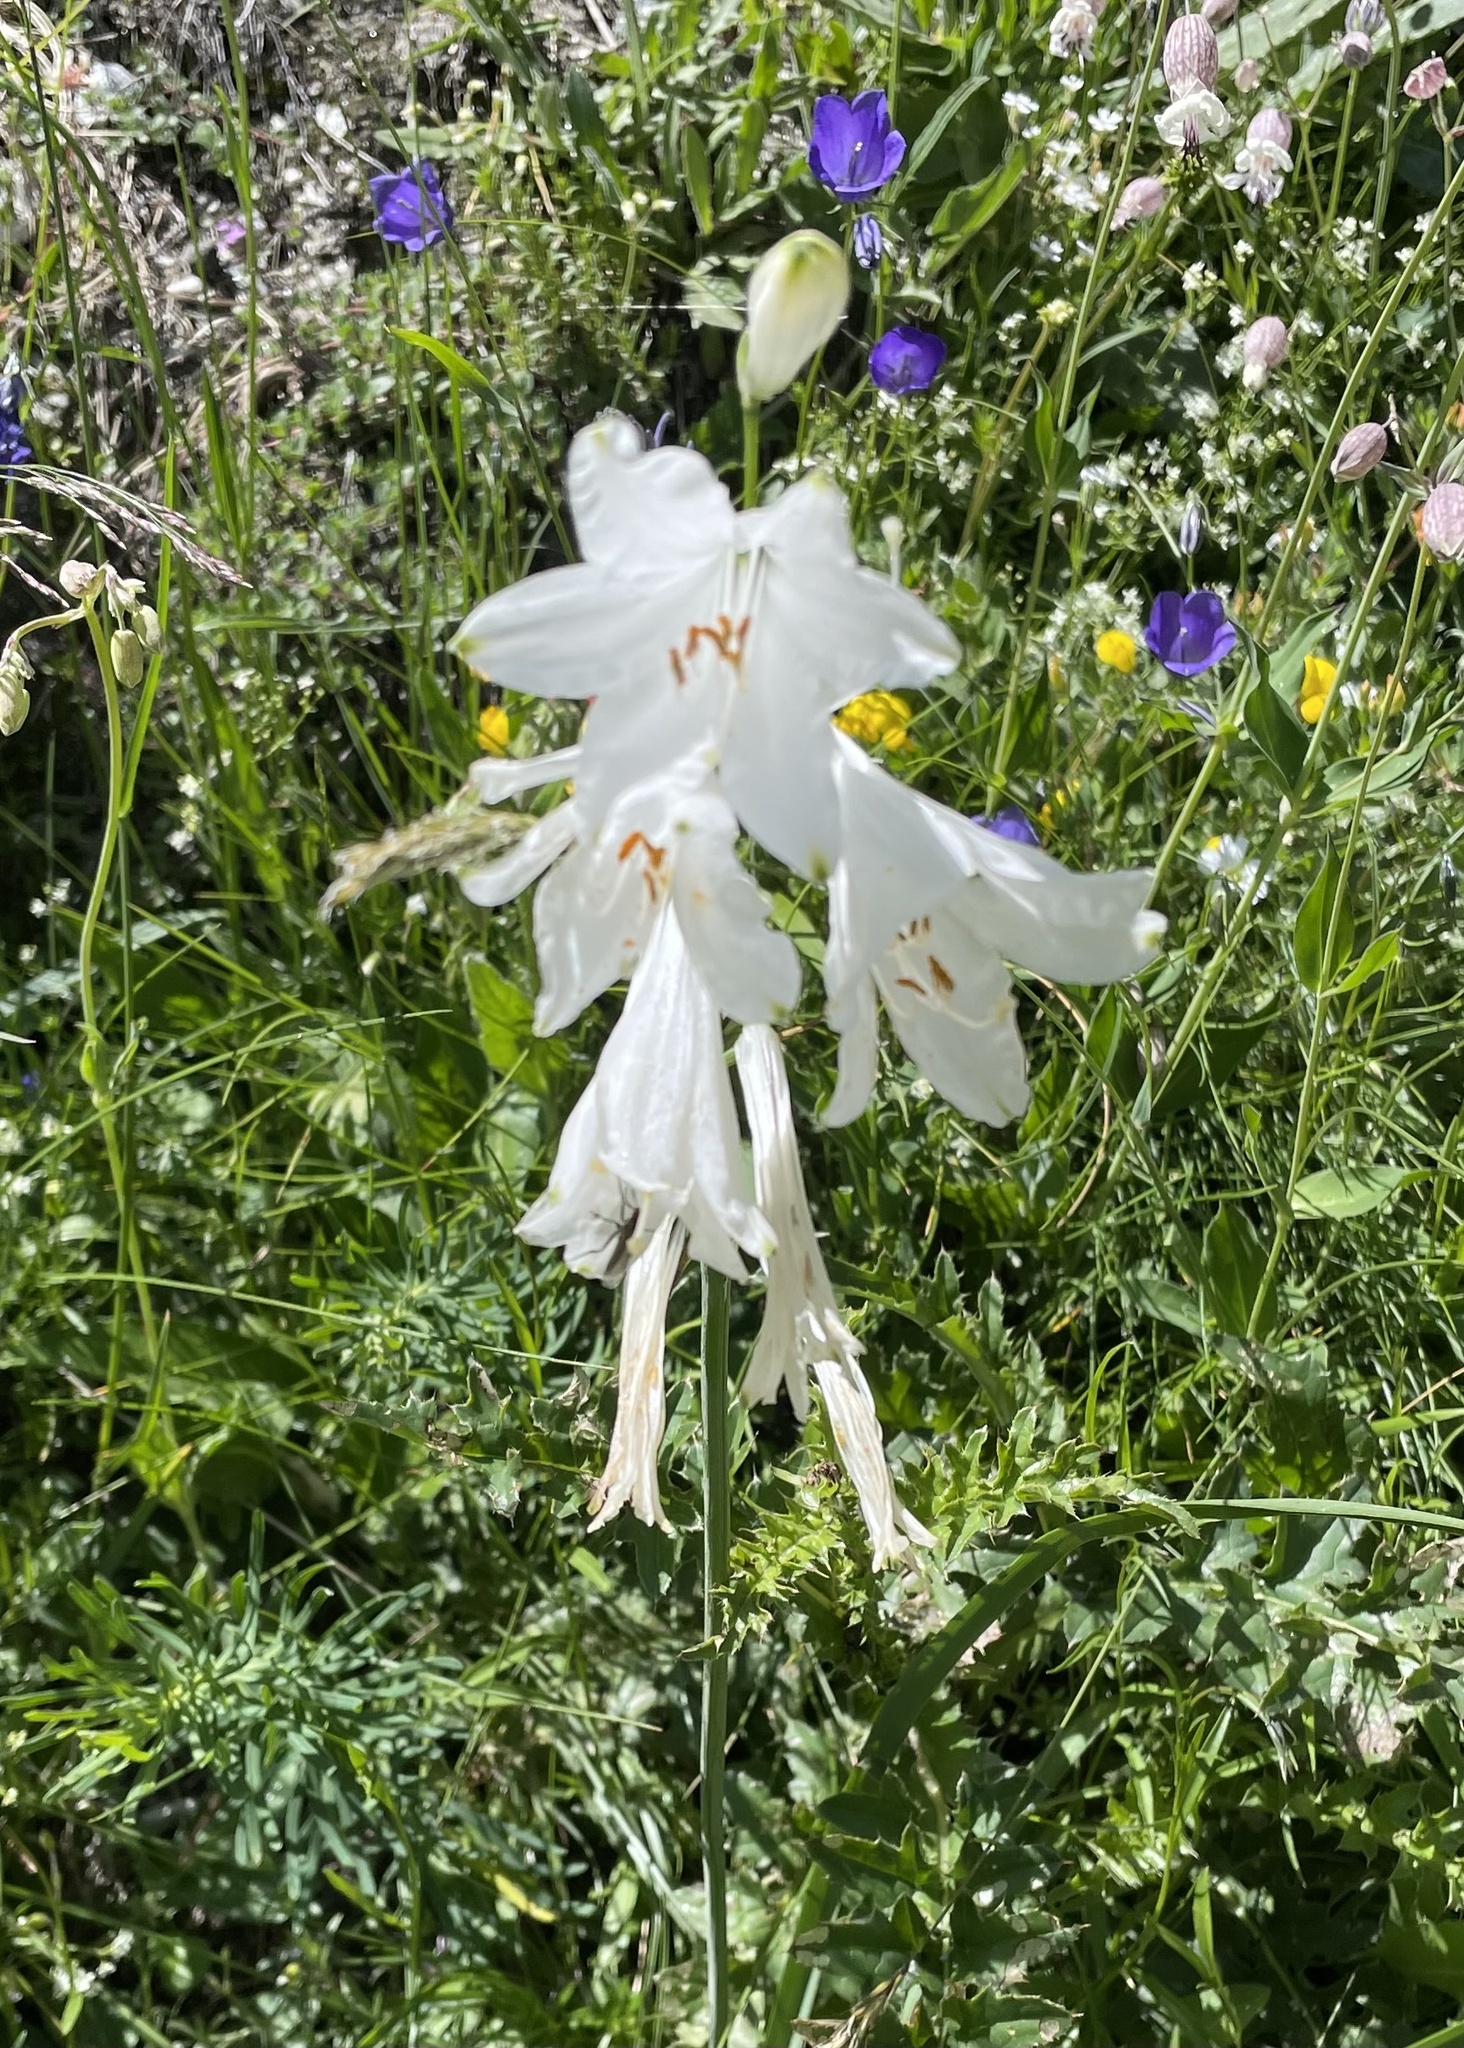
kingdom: Plantae
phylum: Tracheophyta
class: Liliopsida
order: Asparagales
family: Asparagaceae
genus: Paradisea
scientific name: Paradisea liliastrum
